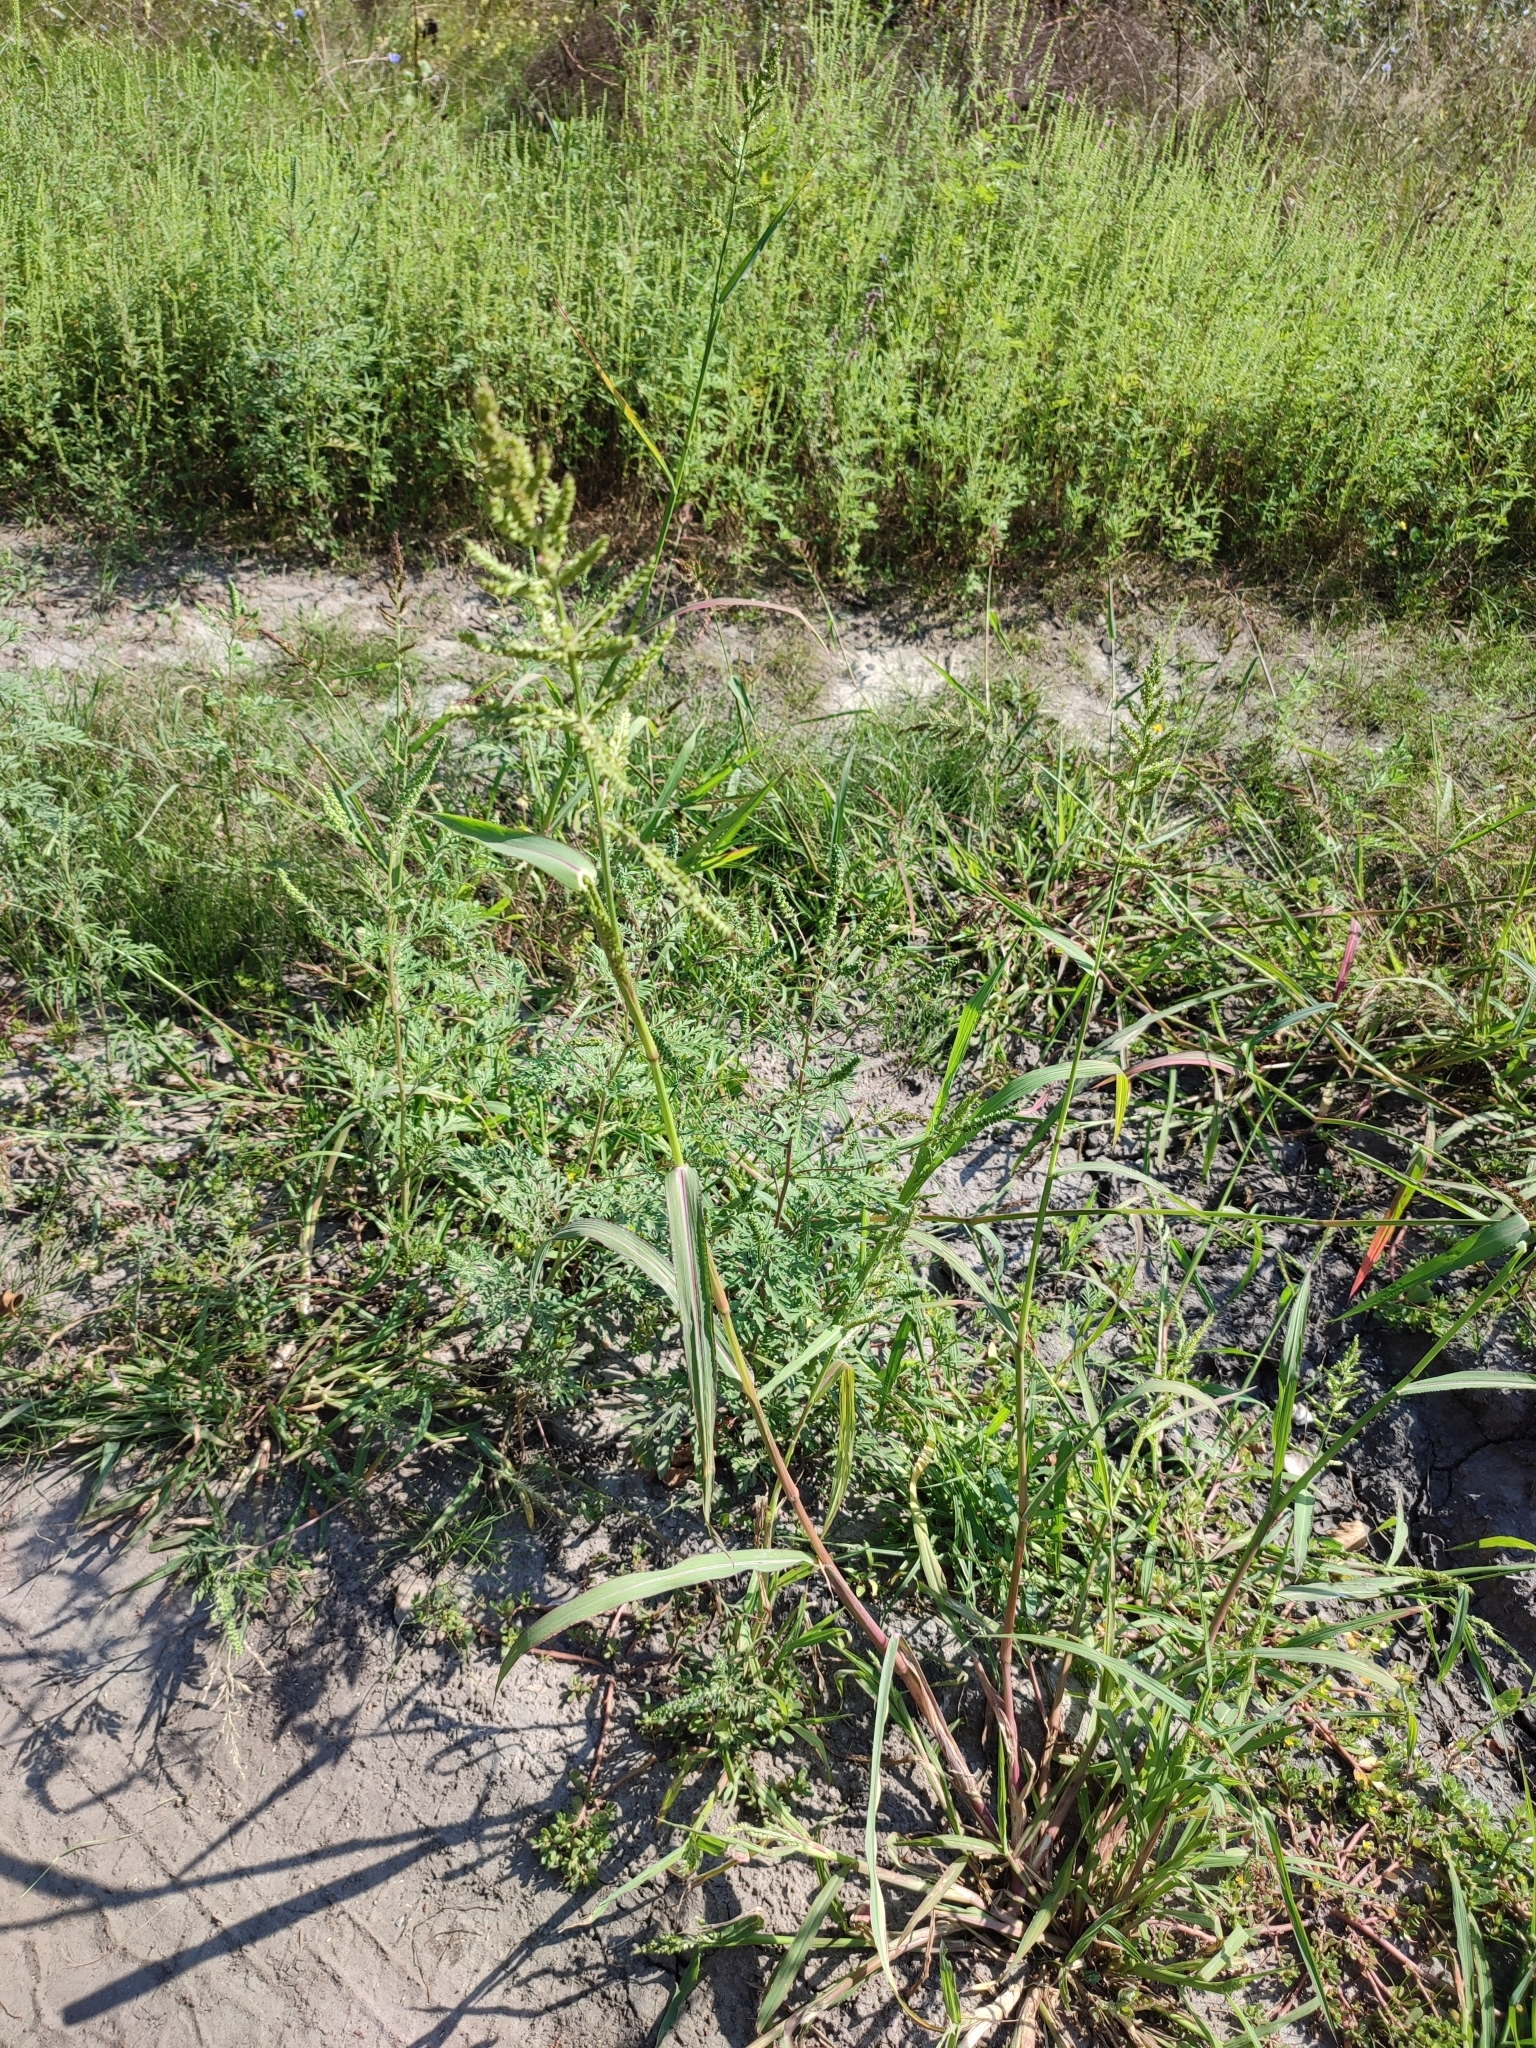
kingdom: Plantae
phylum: Tracheophyta
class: Liliopsida
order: Poales
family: Poaceae
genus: Echinochloa
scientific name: Echinochloa crus-galli
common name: Cockspur
